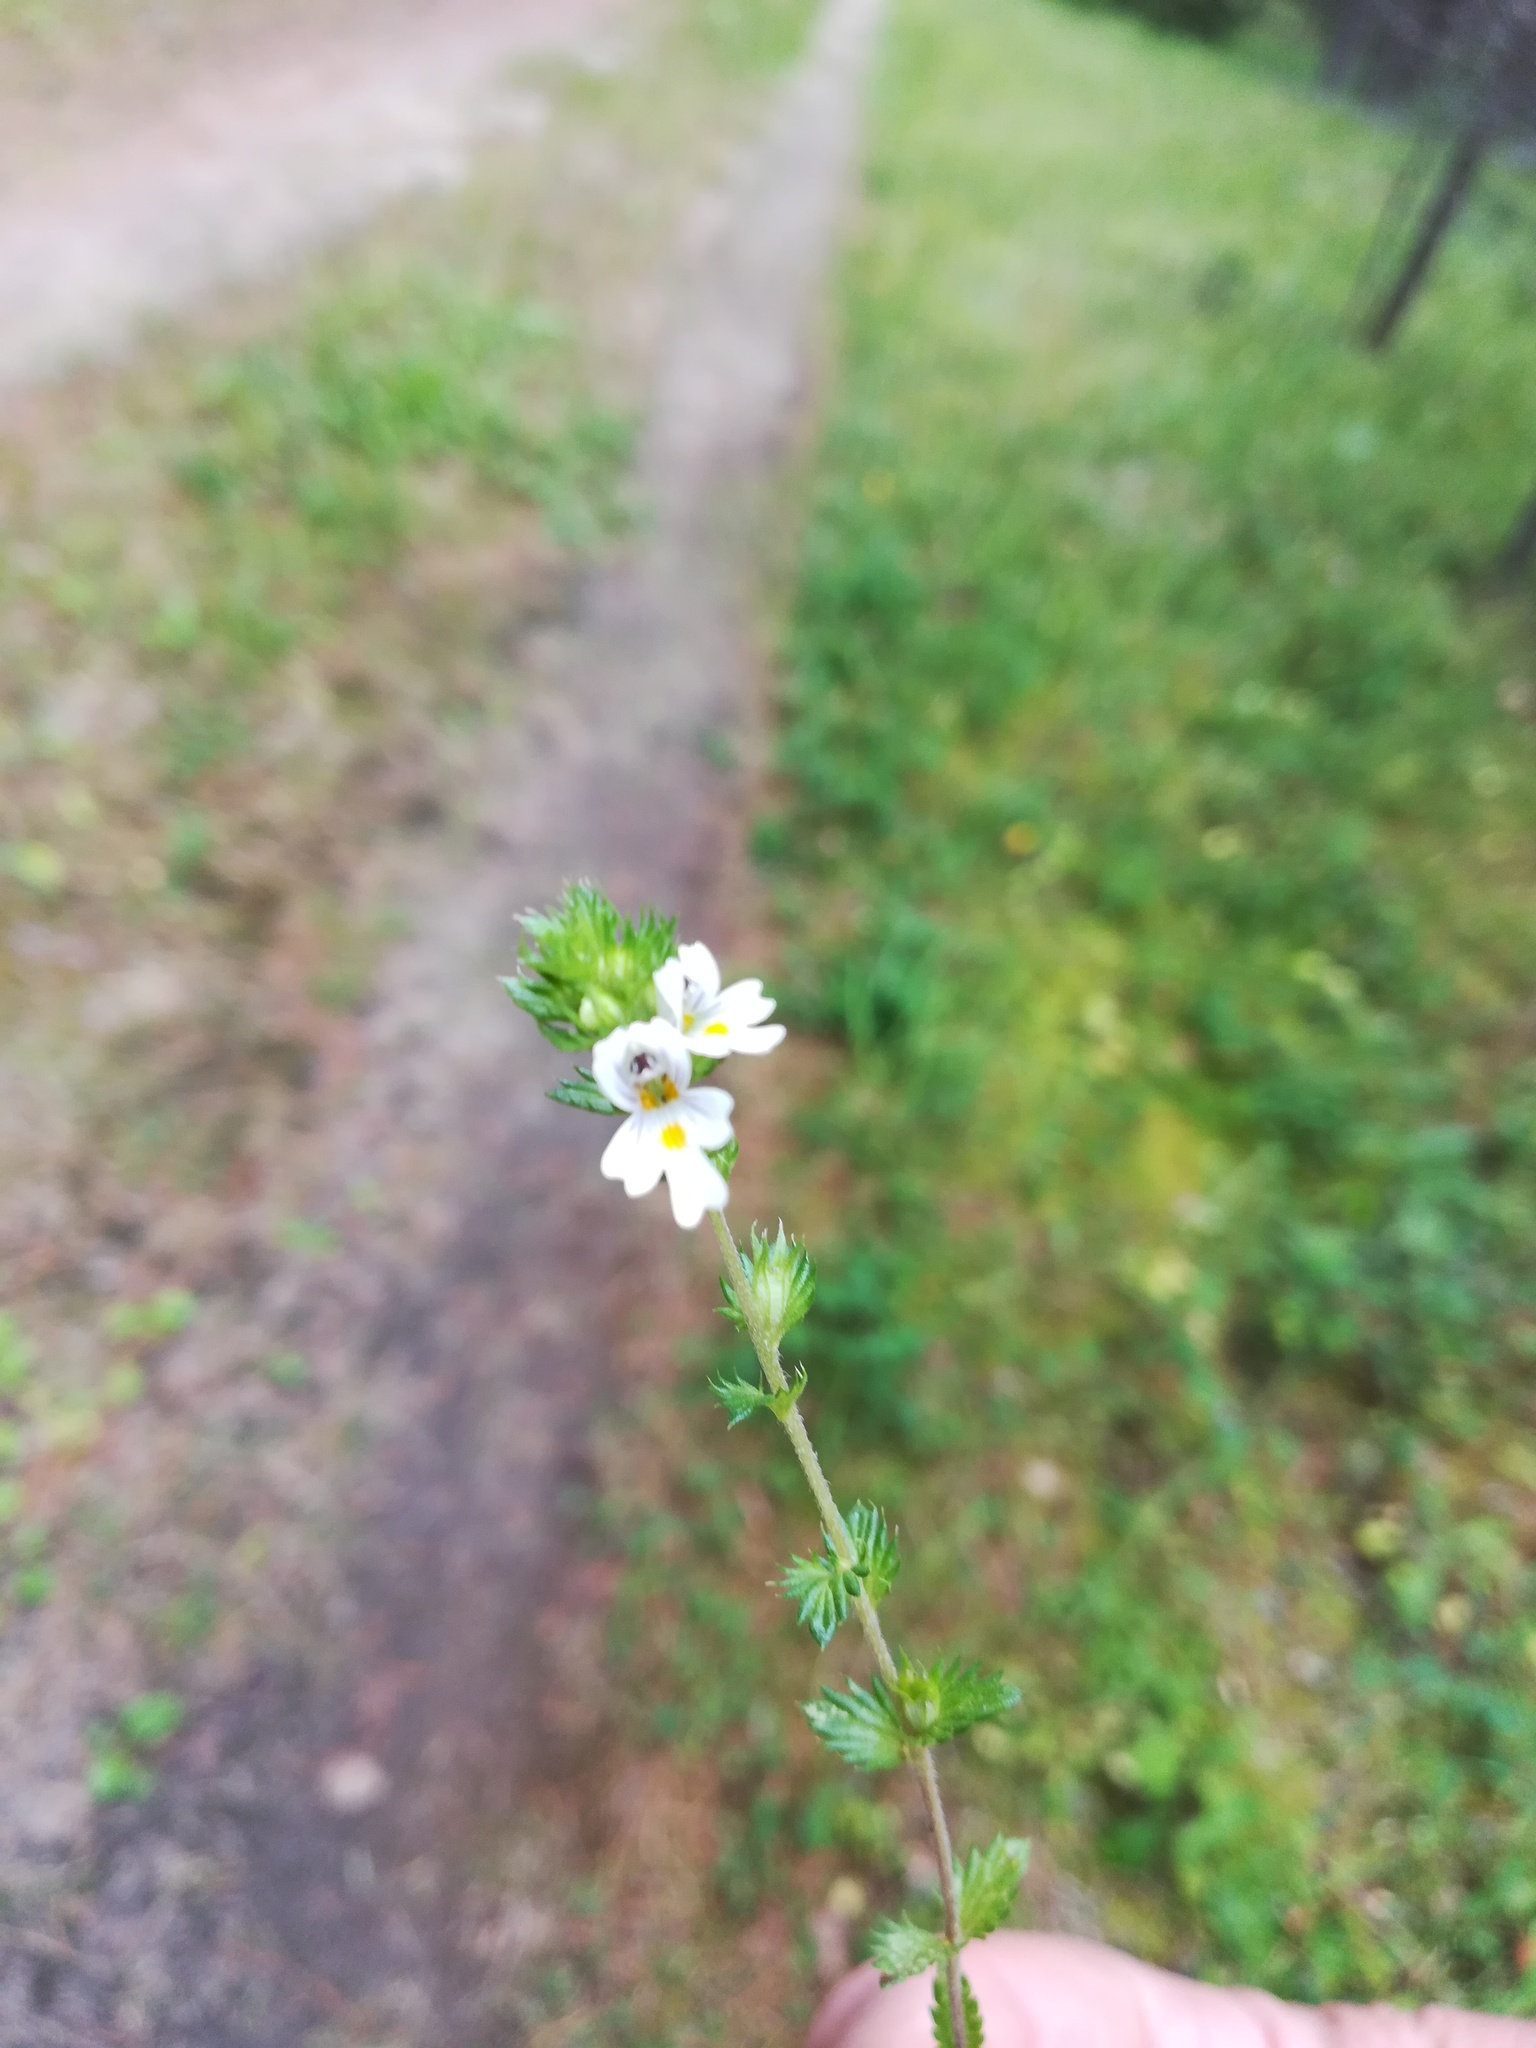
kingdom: Plantae
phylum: Tracheophyta
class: Magnoliopsida
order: Lamiales
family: Orobanchaceae
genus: Euphrasia
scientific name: Euphrasia stricta
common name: Drug eyebright
